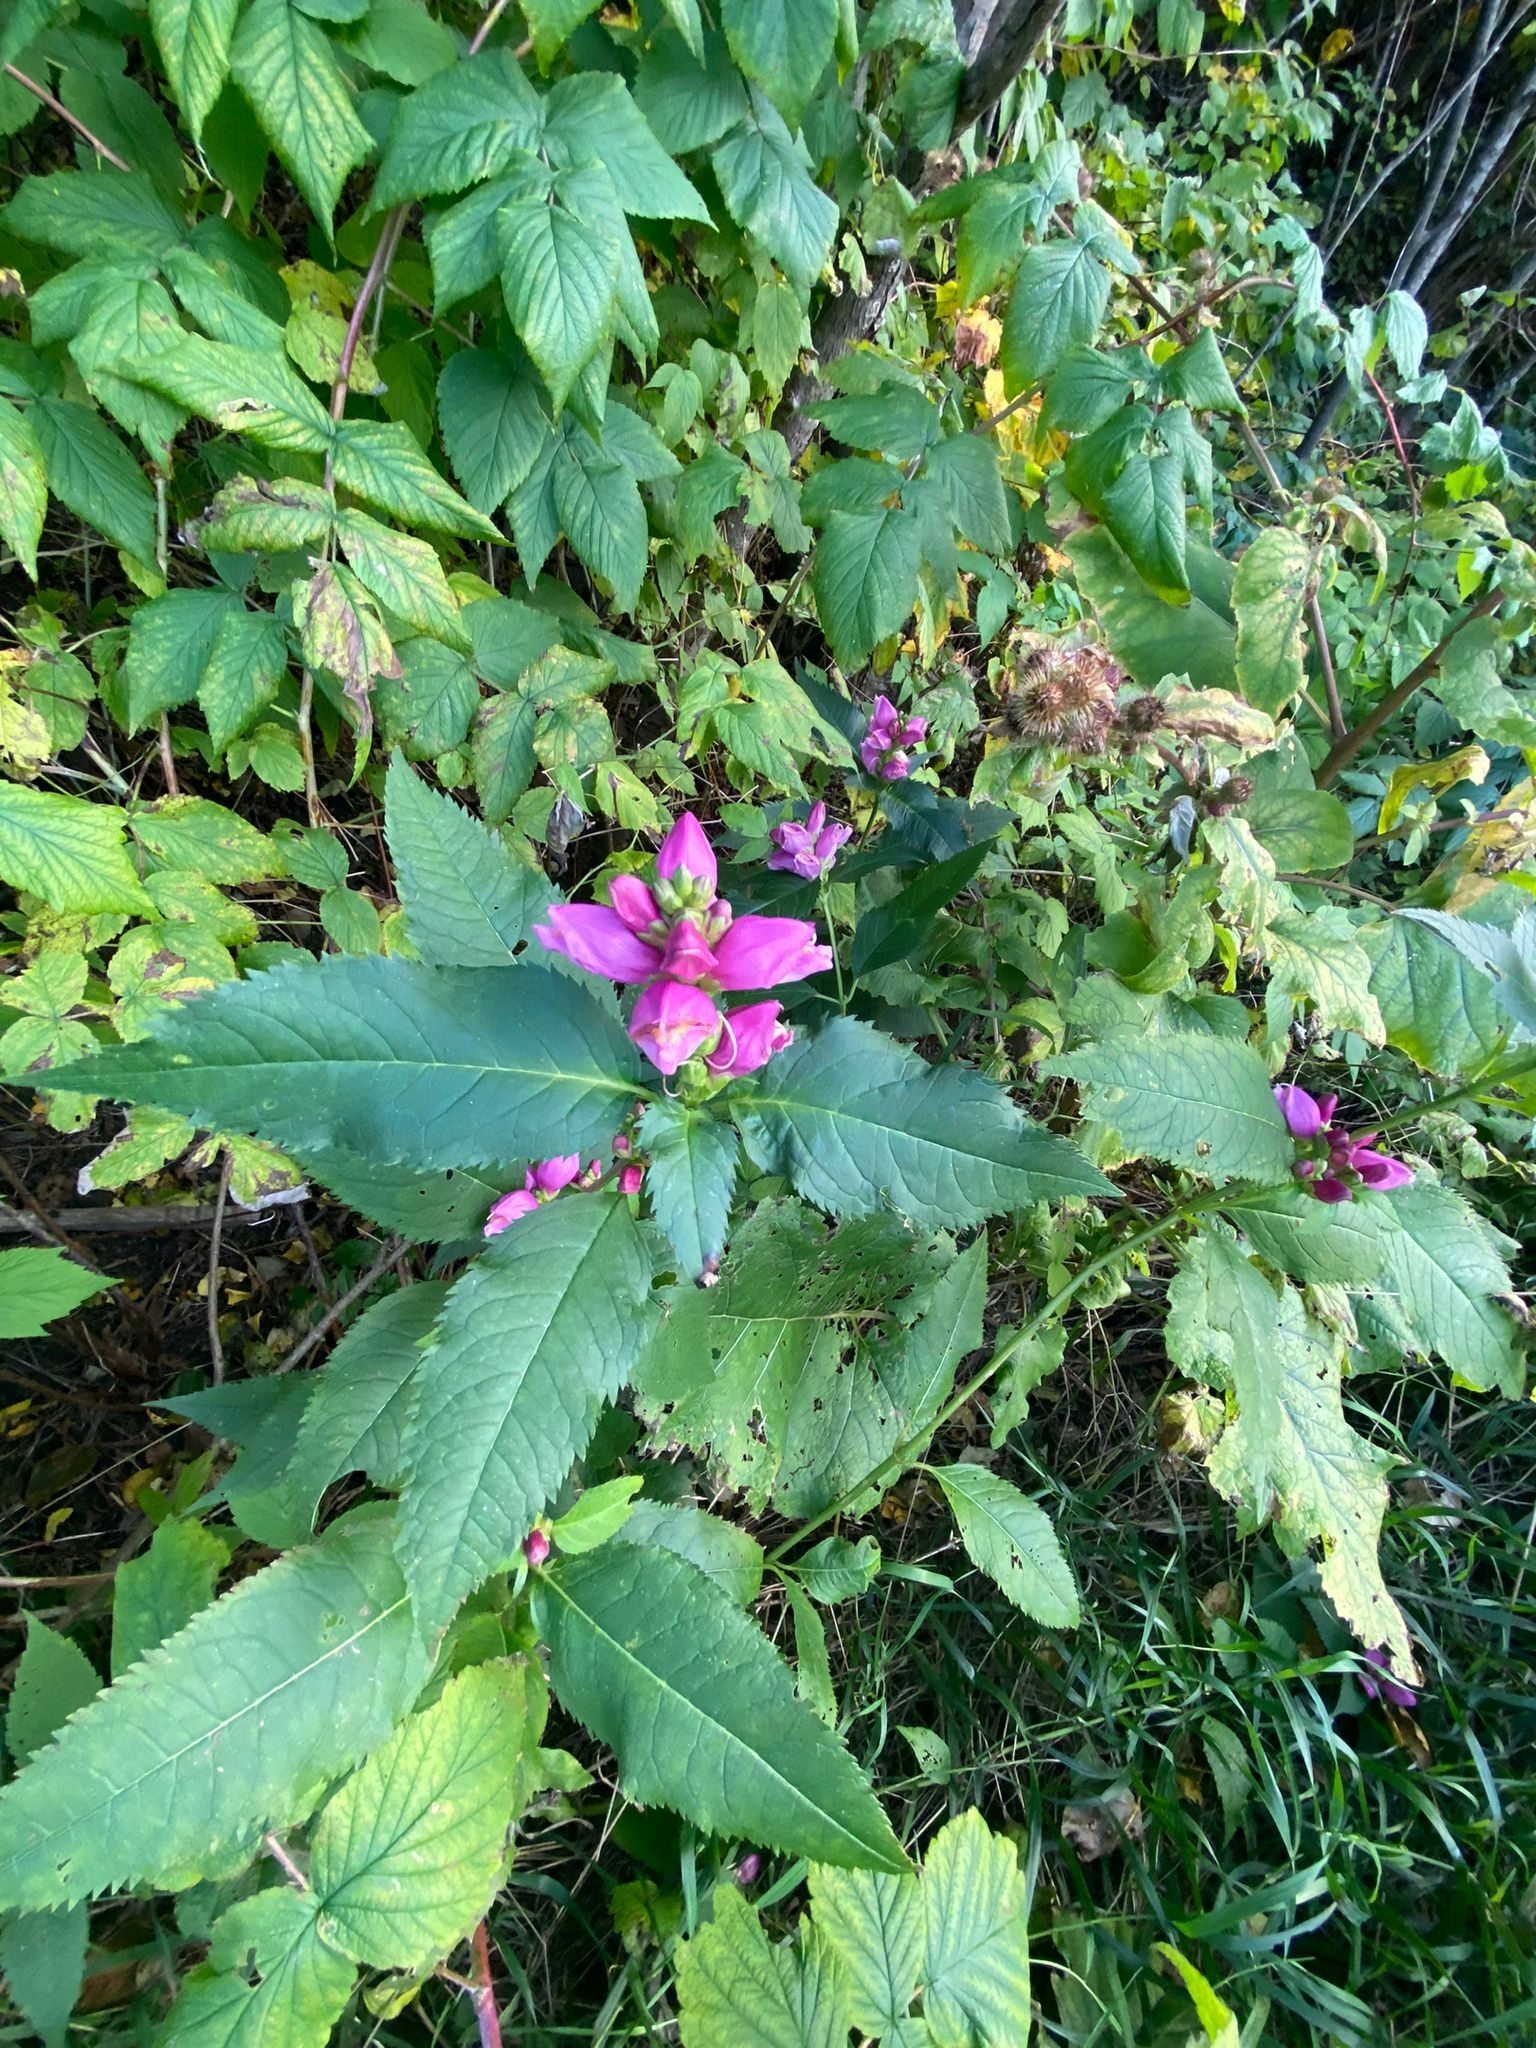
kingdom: Plantae
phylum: Tracheophyta
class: Magnoliopsida
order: Lamiales
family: Plantaginaceae
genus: Chelone
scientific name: Chelone lyonii
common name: Pink turtlehead
